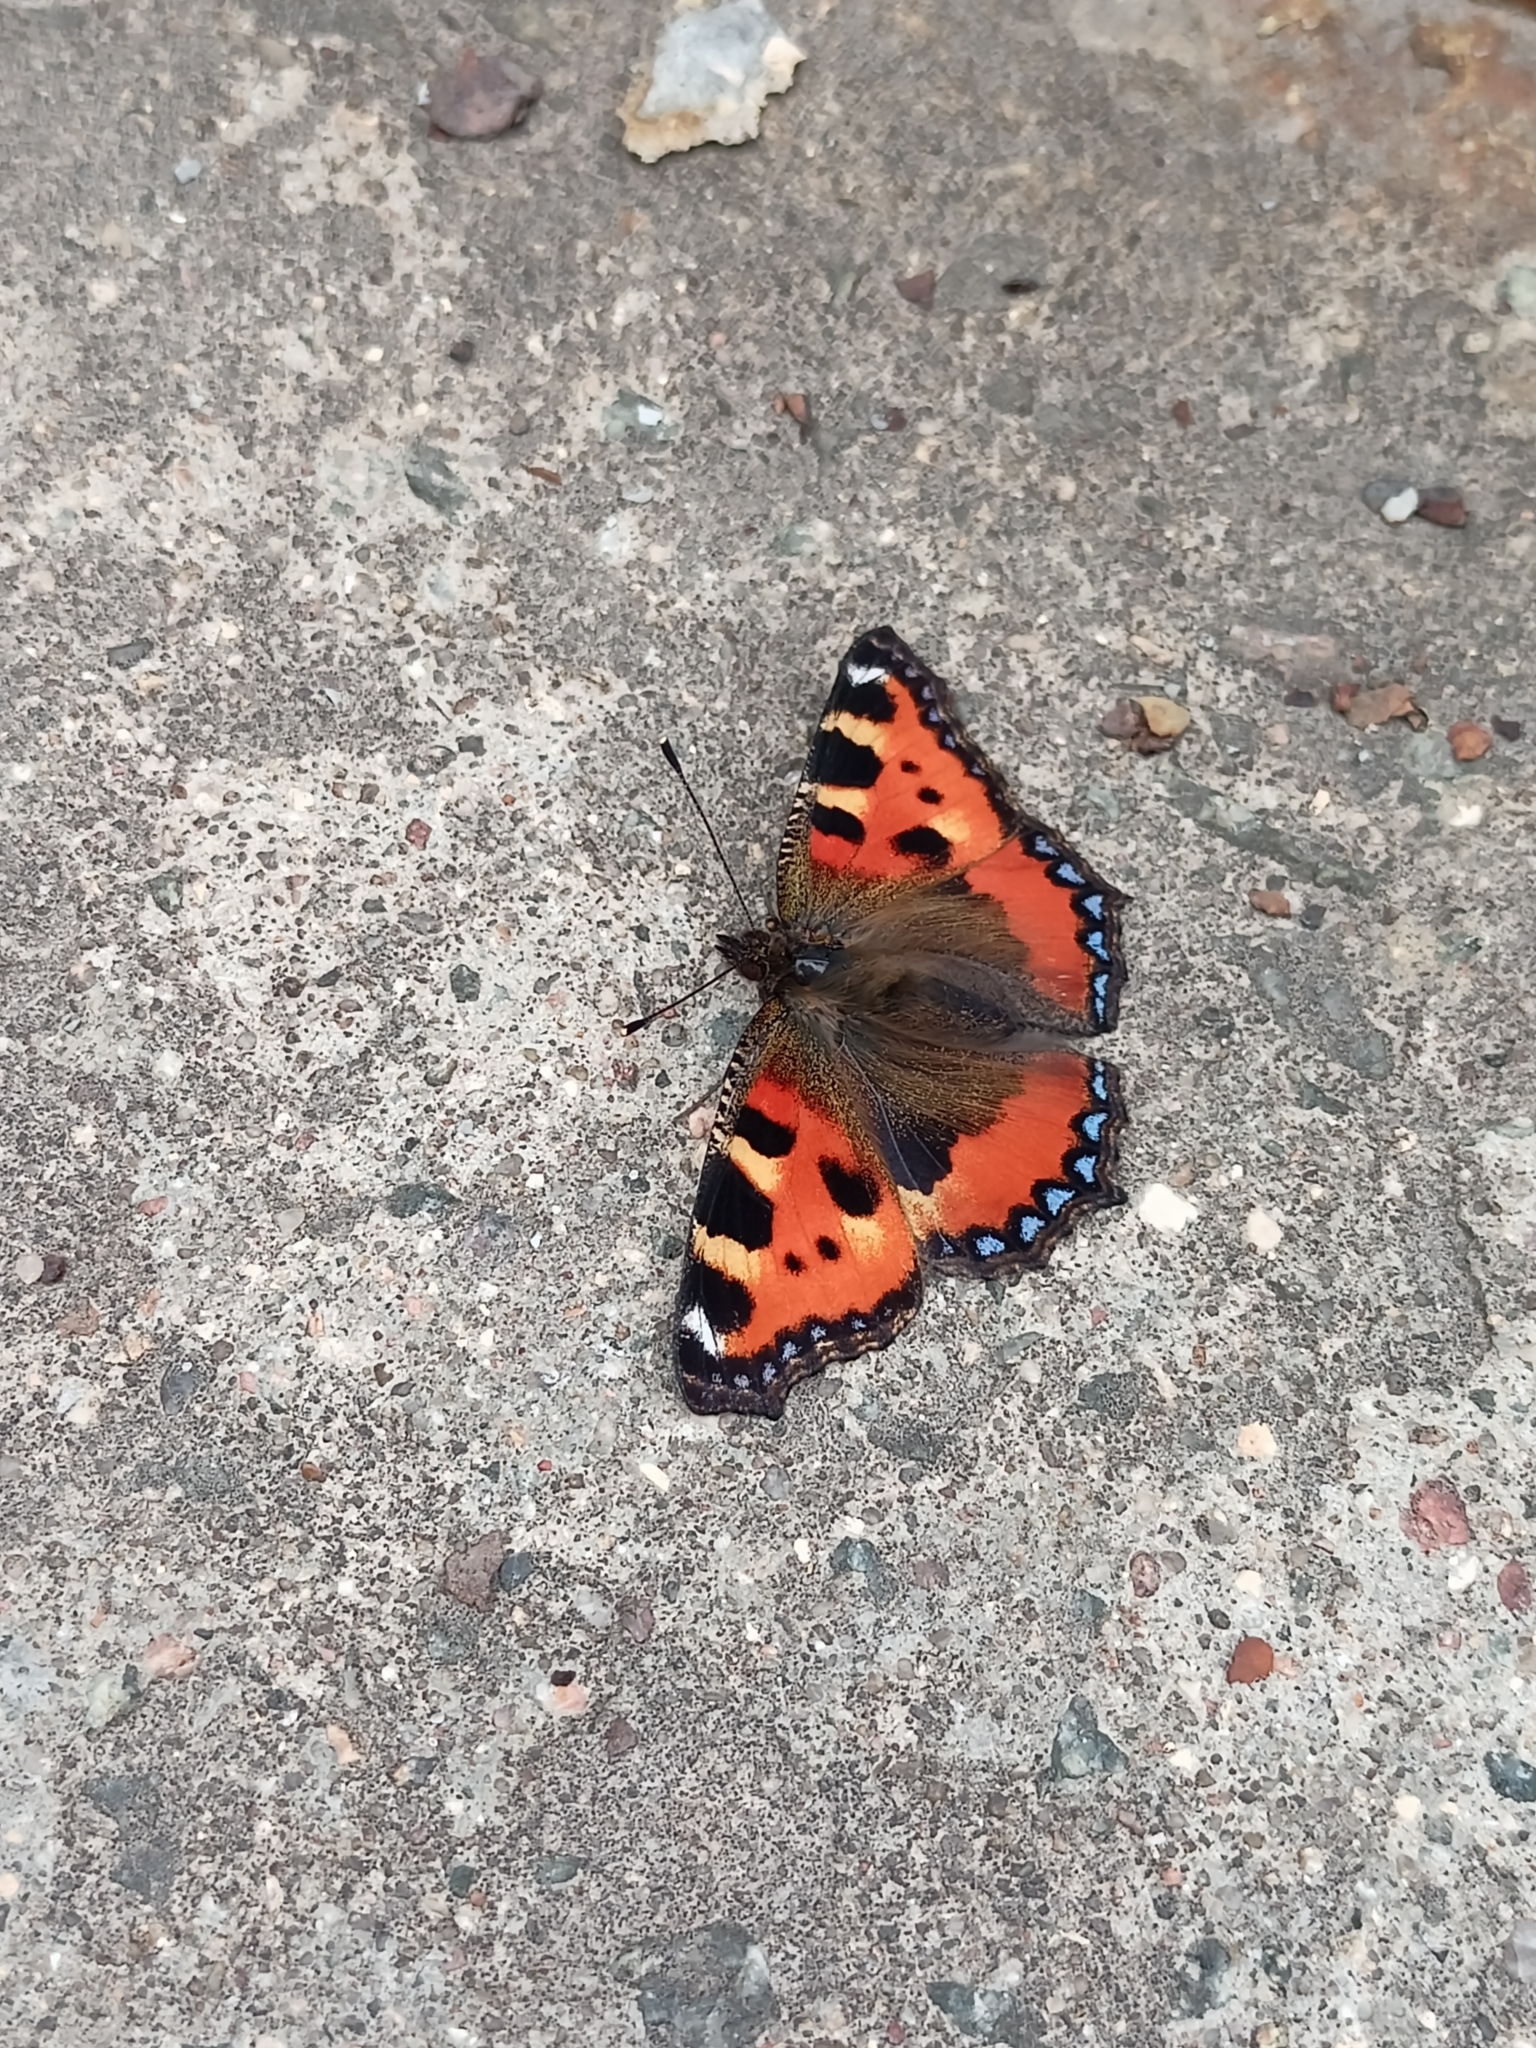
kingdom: Animalia
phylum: Arthropoda
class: Insecta
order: Lepidoptera
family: Nymphalidae
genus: Aglais
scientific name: Aglais urticae
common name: Small tortoiseshell
